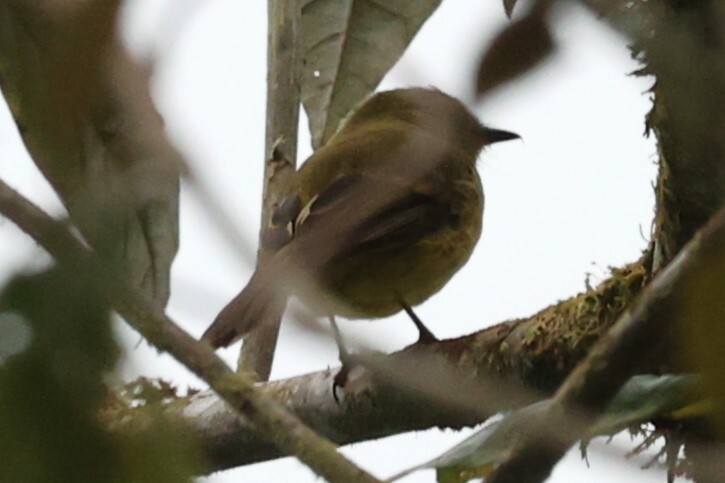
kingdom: Animalia
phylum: Chordata
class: Aves
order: Passeriformes
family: Tyrannidae
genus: Myiophobus
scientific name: Myiophobus flavicans
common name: Flavescent flycatcher
